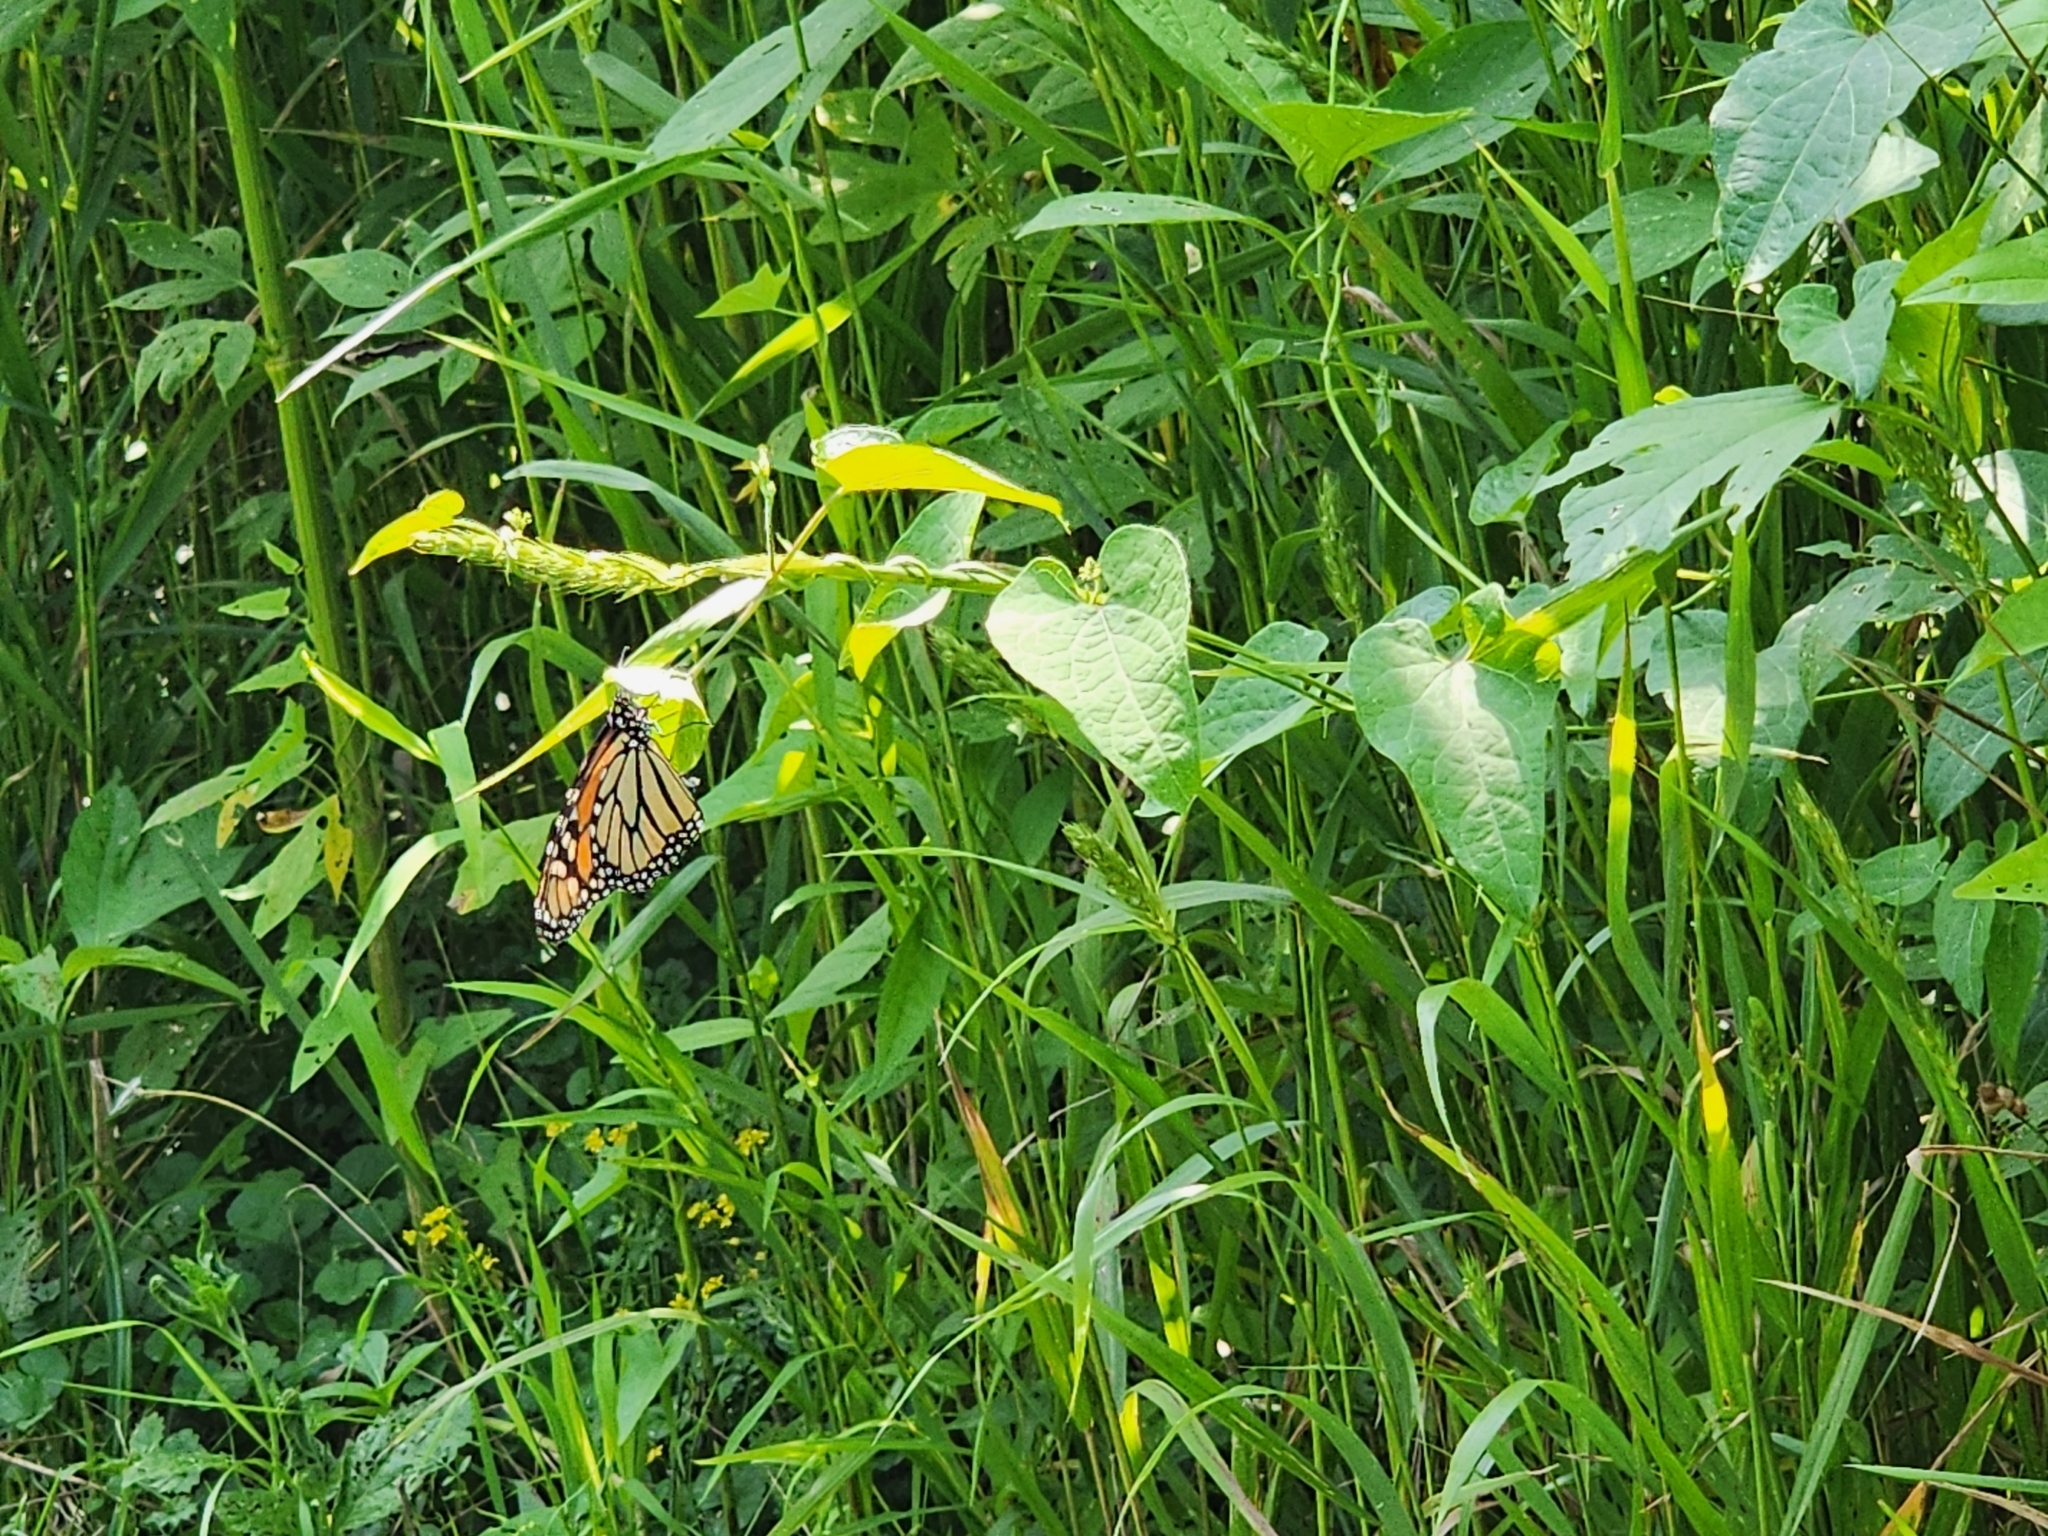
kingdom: Animalia
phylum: Arthropoda
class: Insecta
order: Lepidoptera
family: Nymphalidae
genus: Danaus
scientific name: Danaus plexippus
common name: Monarch
